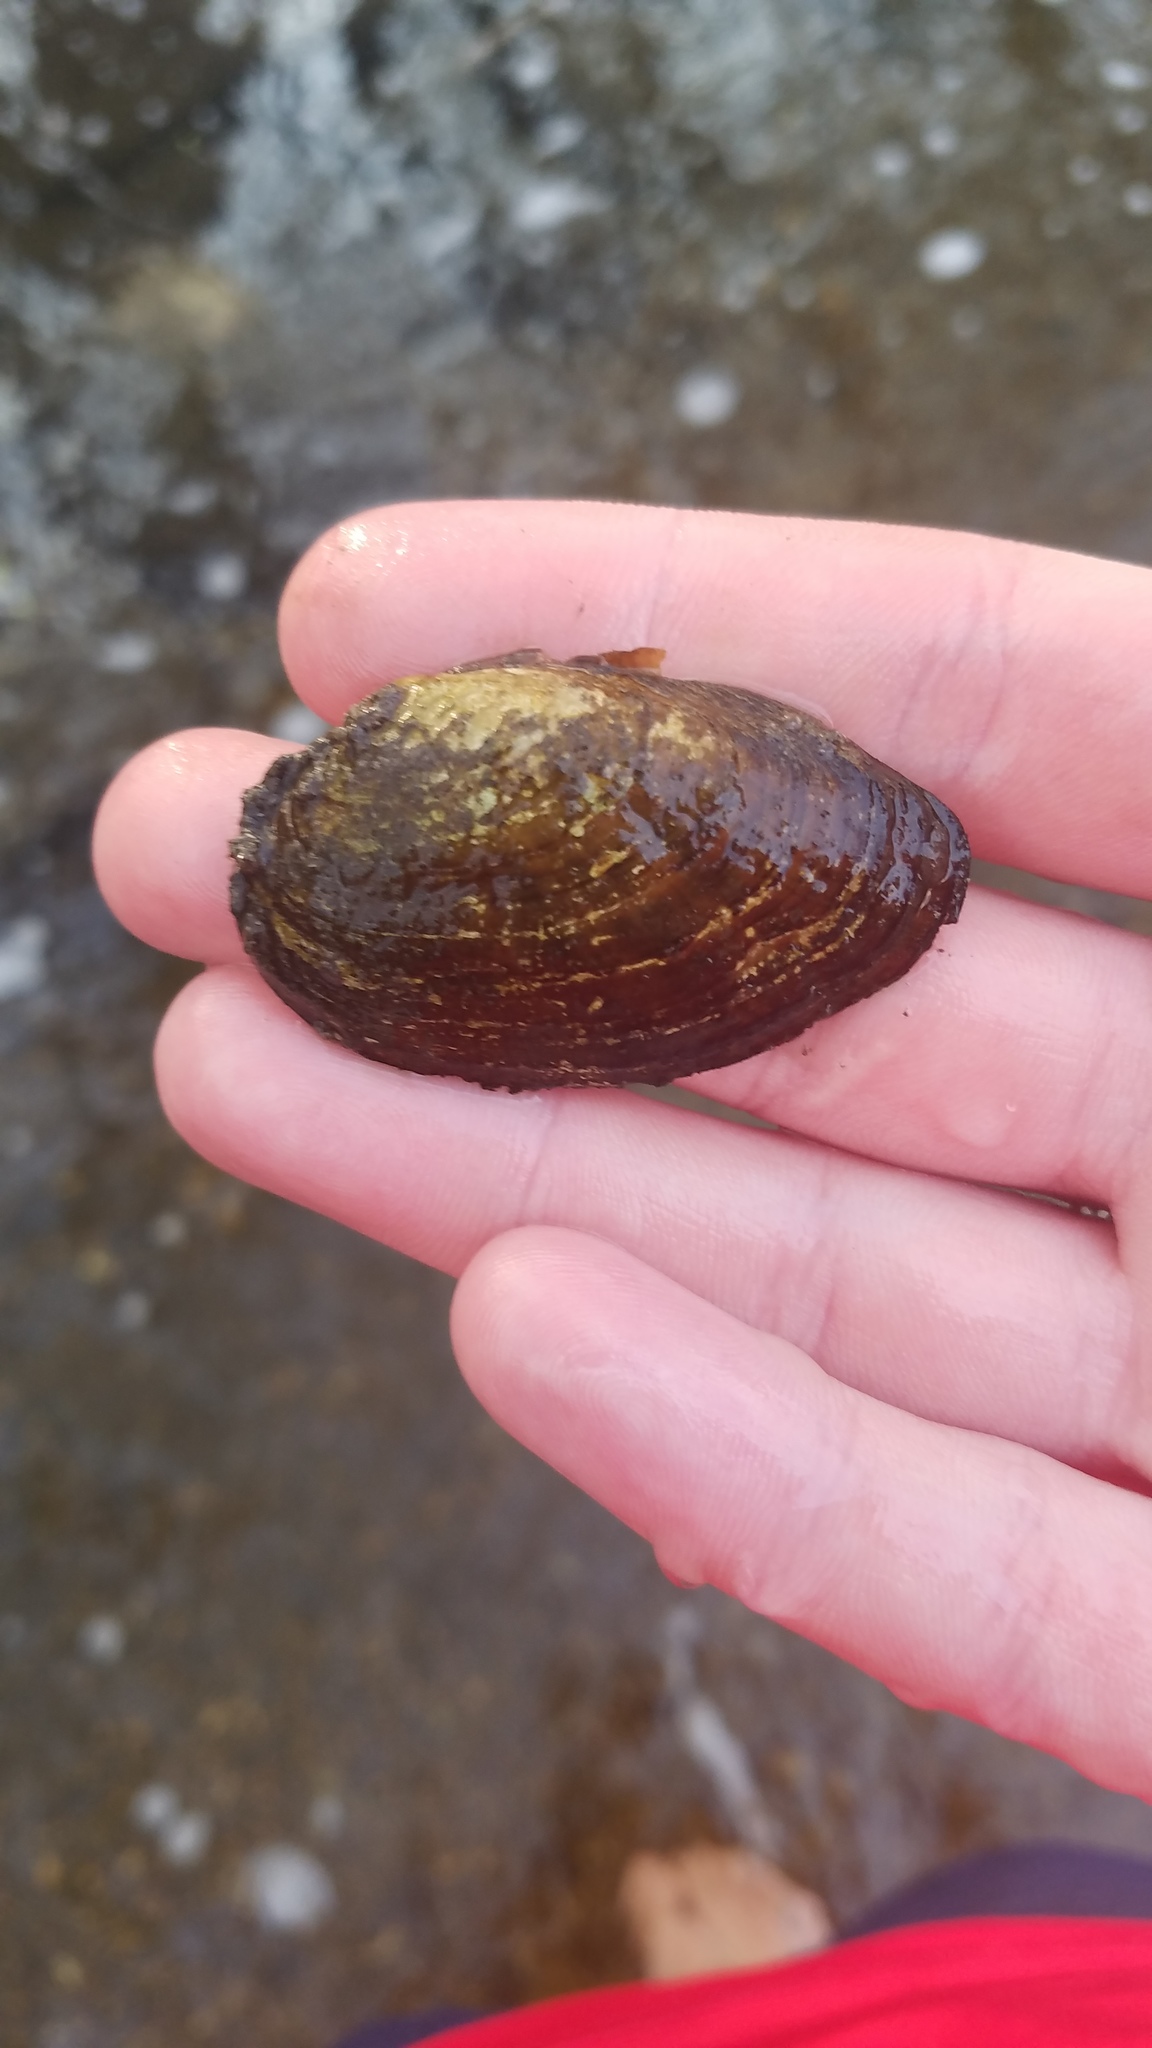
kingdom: Animalia
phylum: Mollusca
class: Bivalvia
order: Unionida
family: Unionidae
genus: Venustaconcha
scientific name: Venustaconcha ellipsiformis
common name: Ellipse
